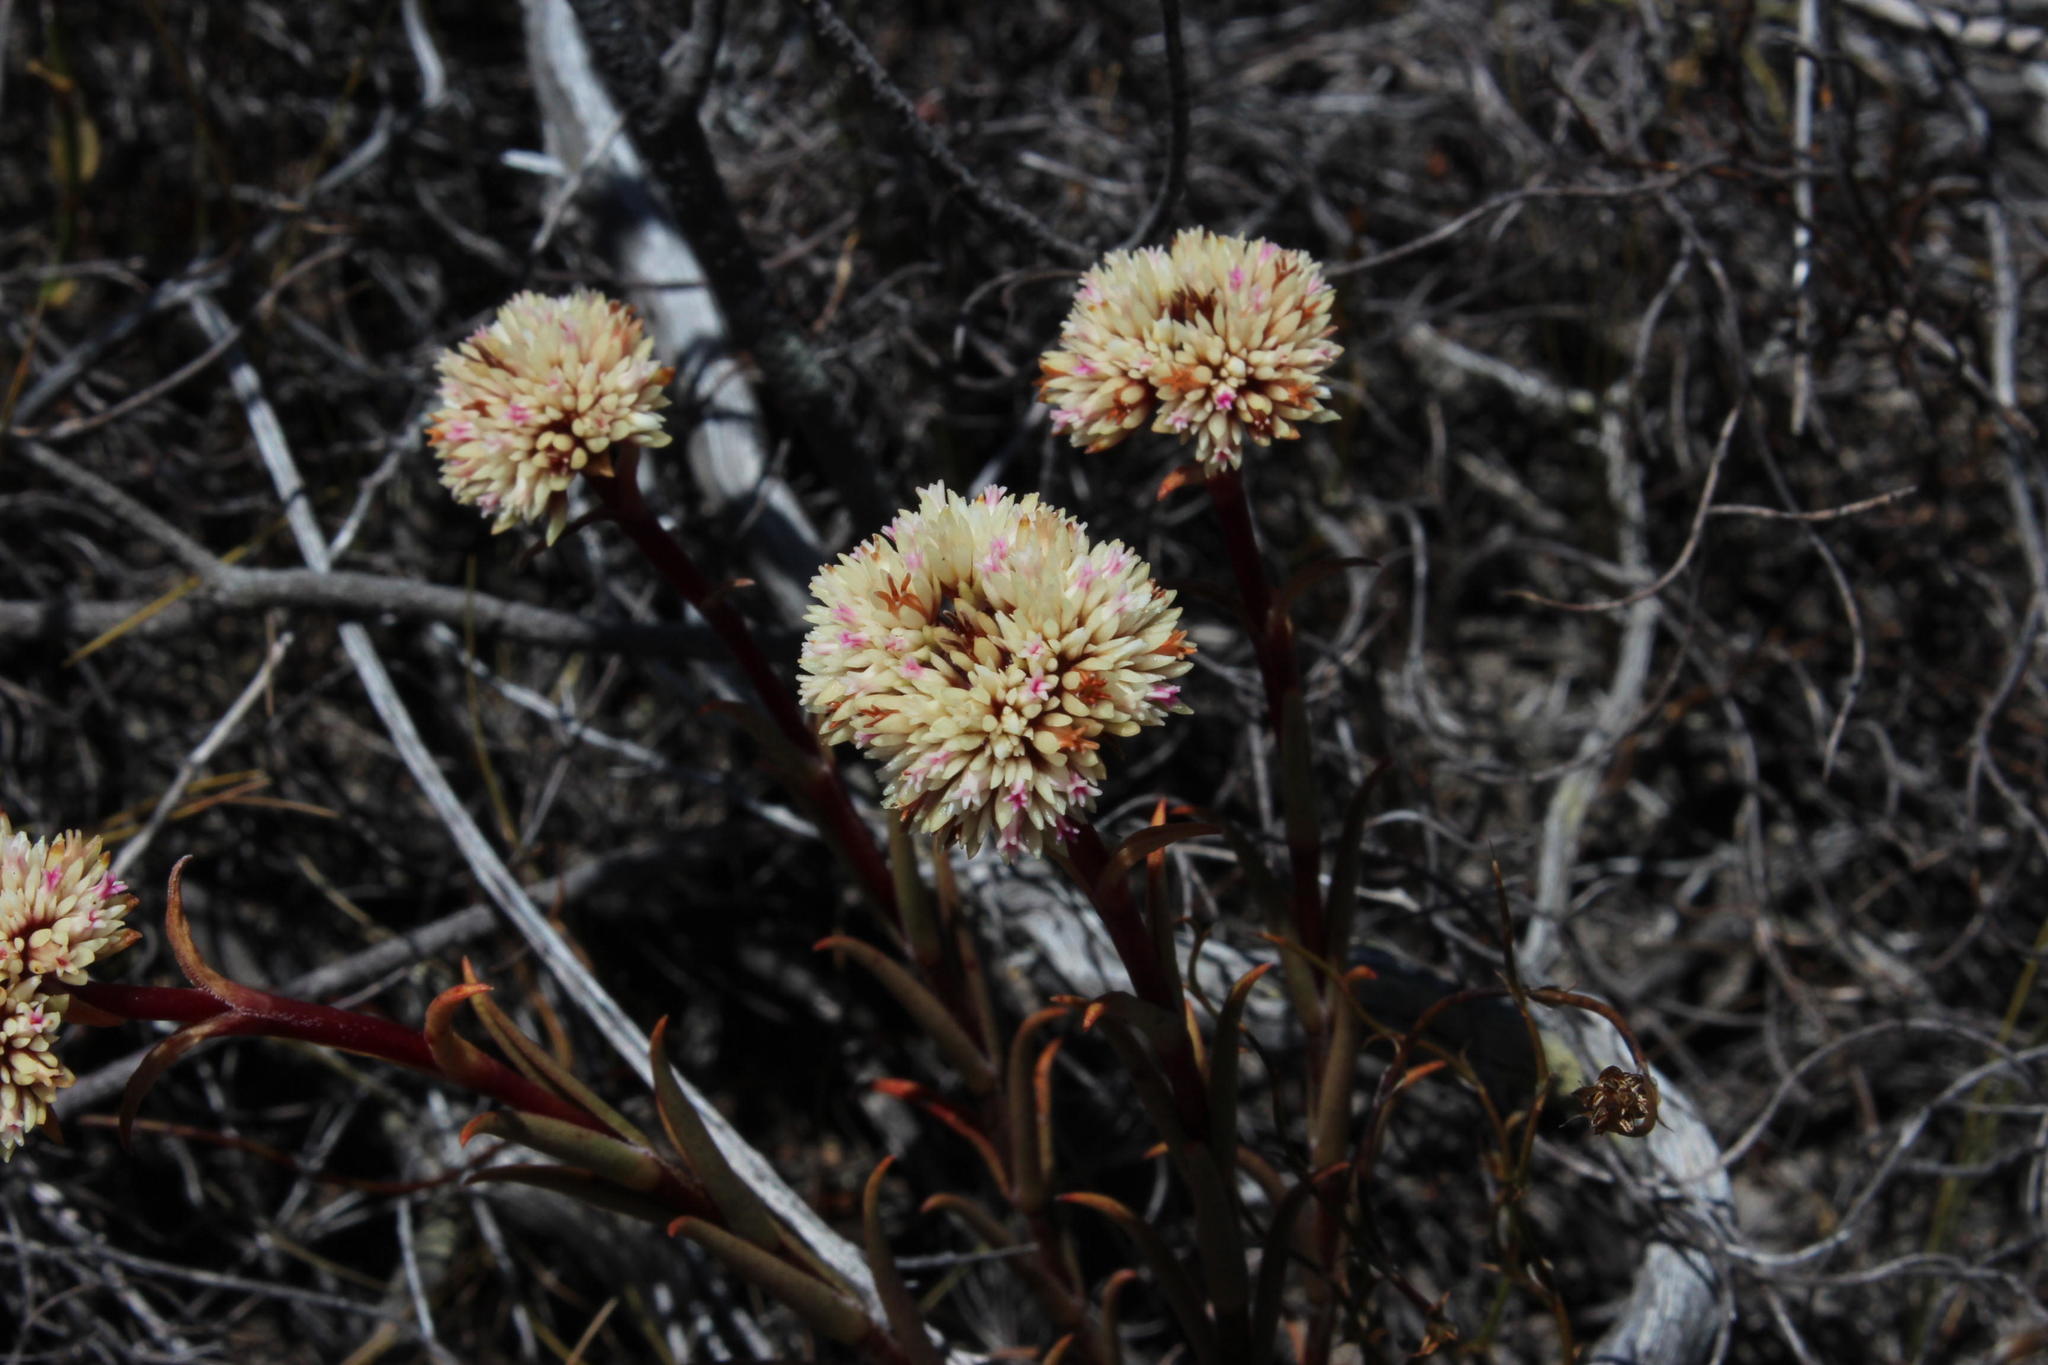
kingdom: Plantae
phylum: Tracheophyta
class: Magnoliopsida
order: Saxifragales
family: Crassulaceae
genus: Crassula
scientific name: Crassula subulata
